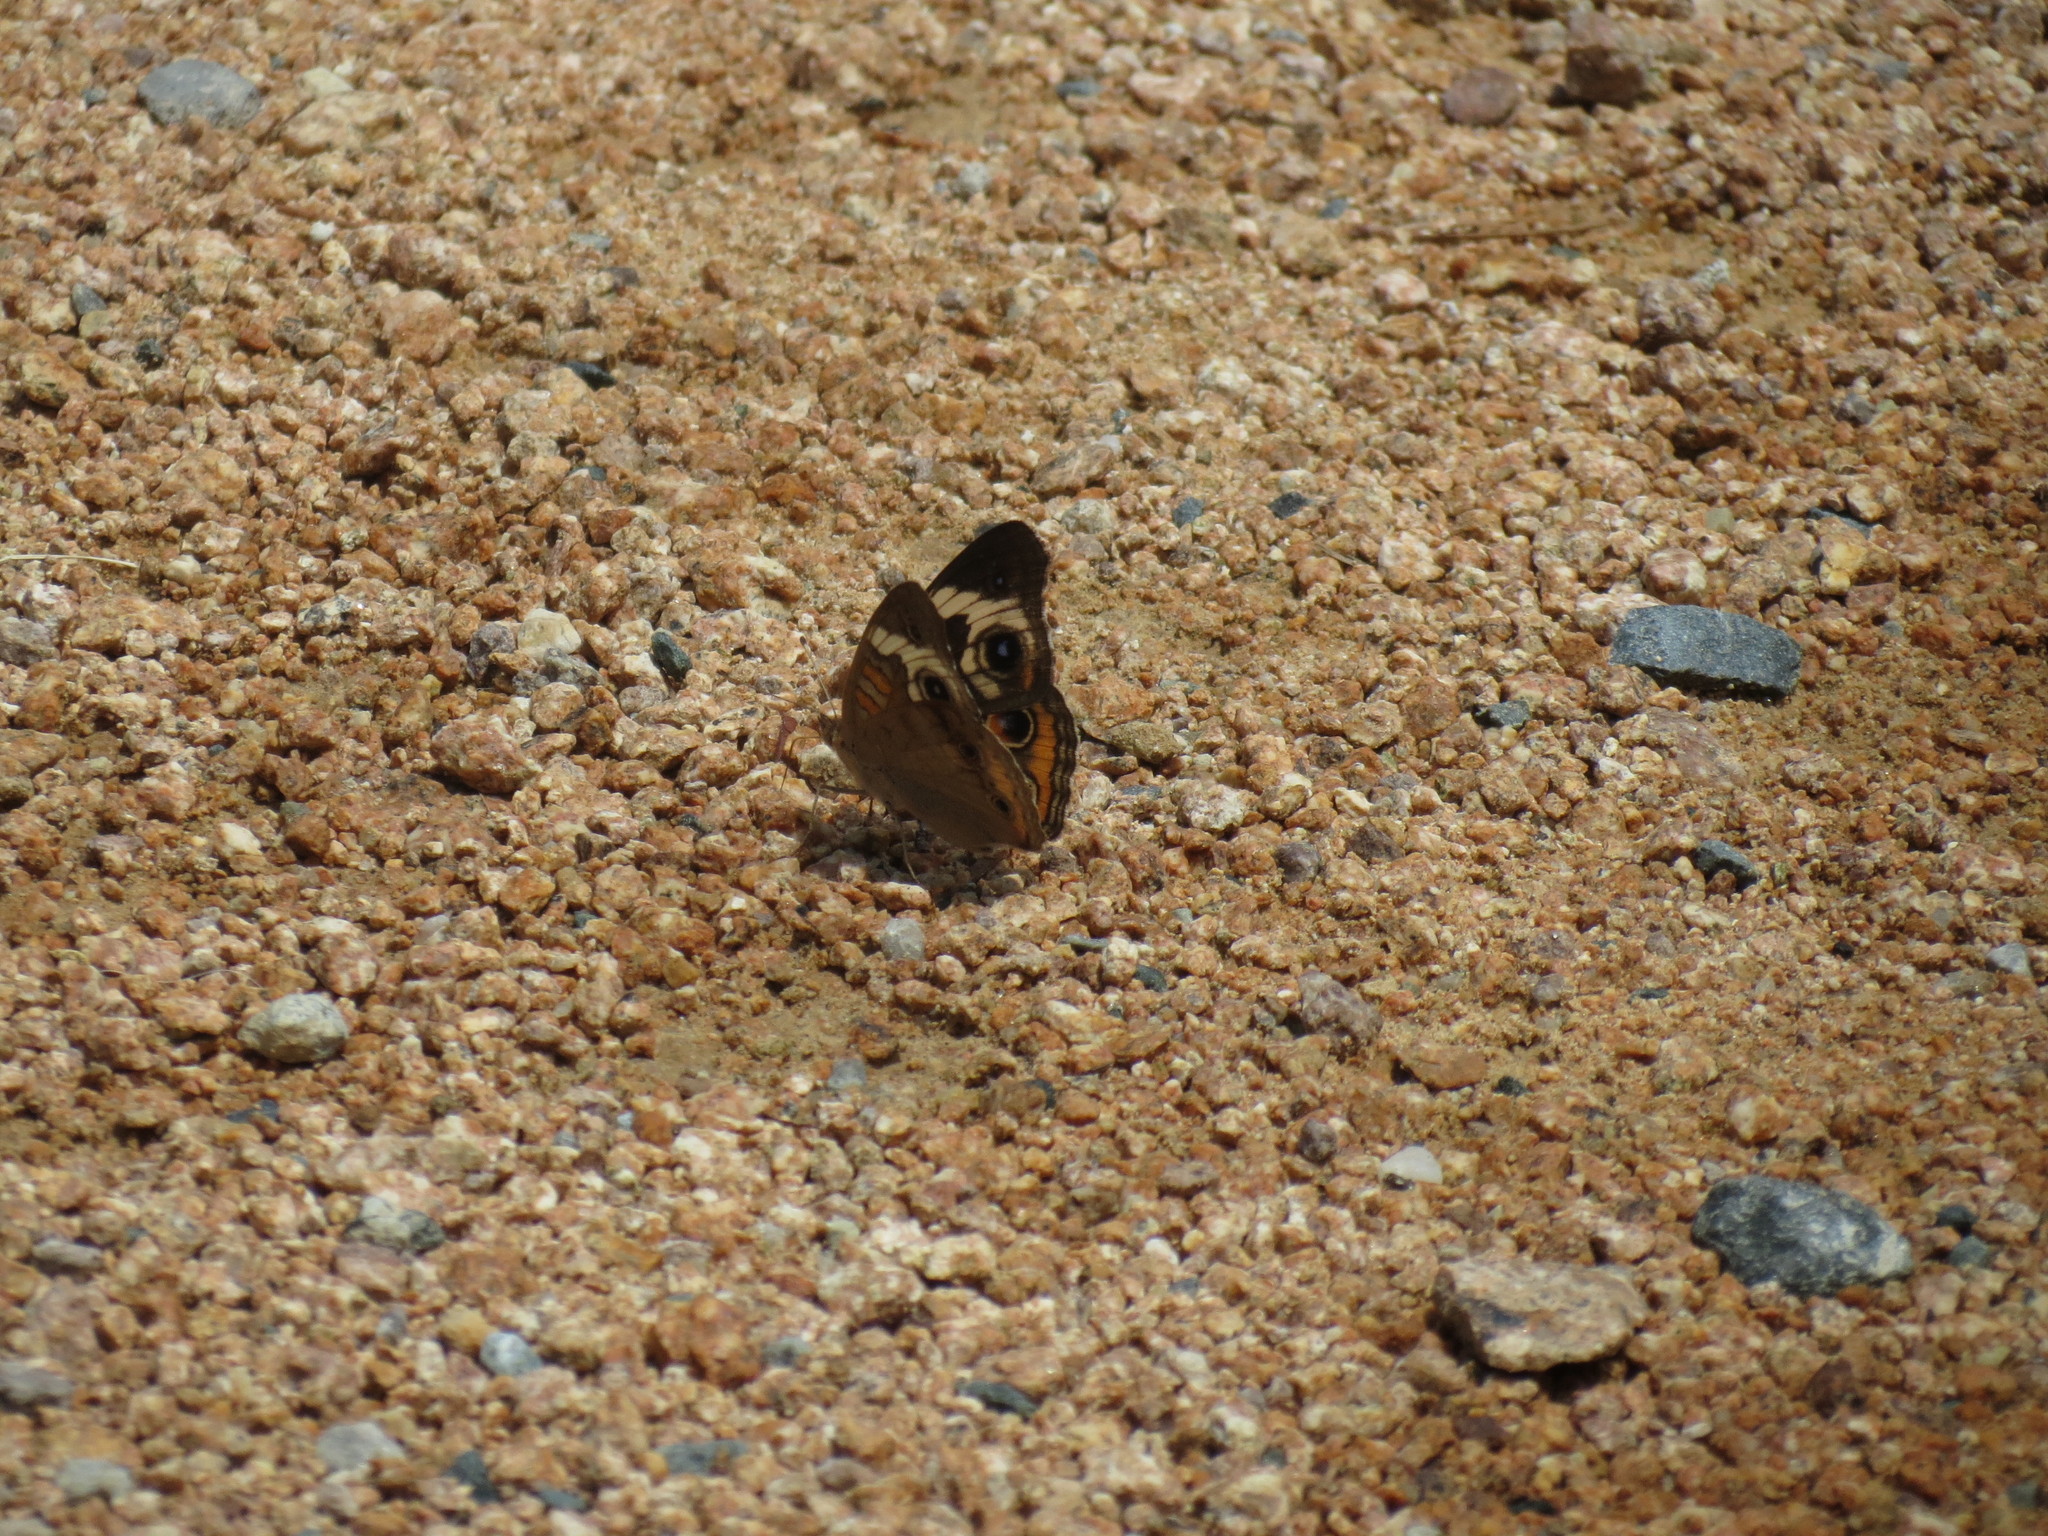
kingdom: Animalia
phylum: Arthropoda
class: Insecta
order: Lepidoptera
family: Nymphalidae
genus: Junonia
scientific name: Junonia coenia
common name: Common buckeye
